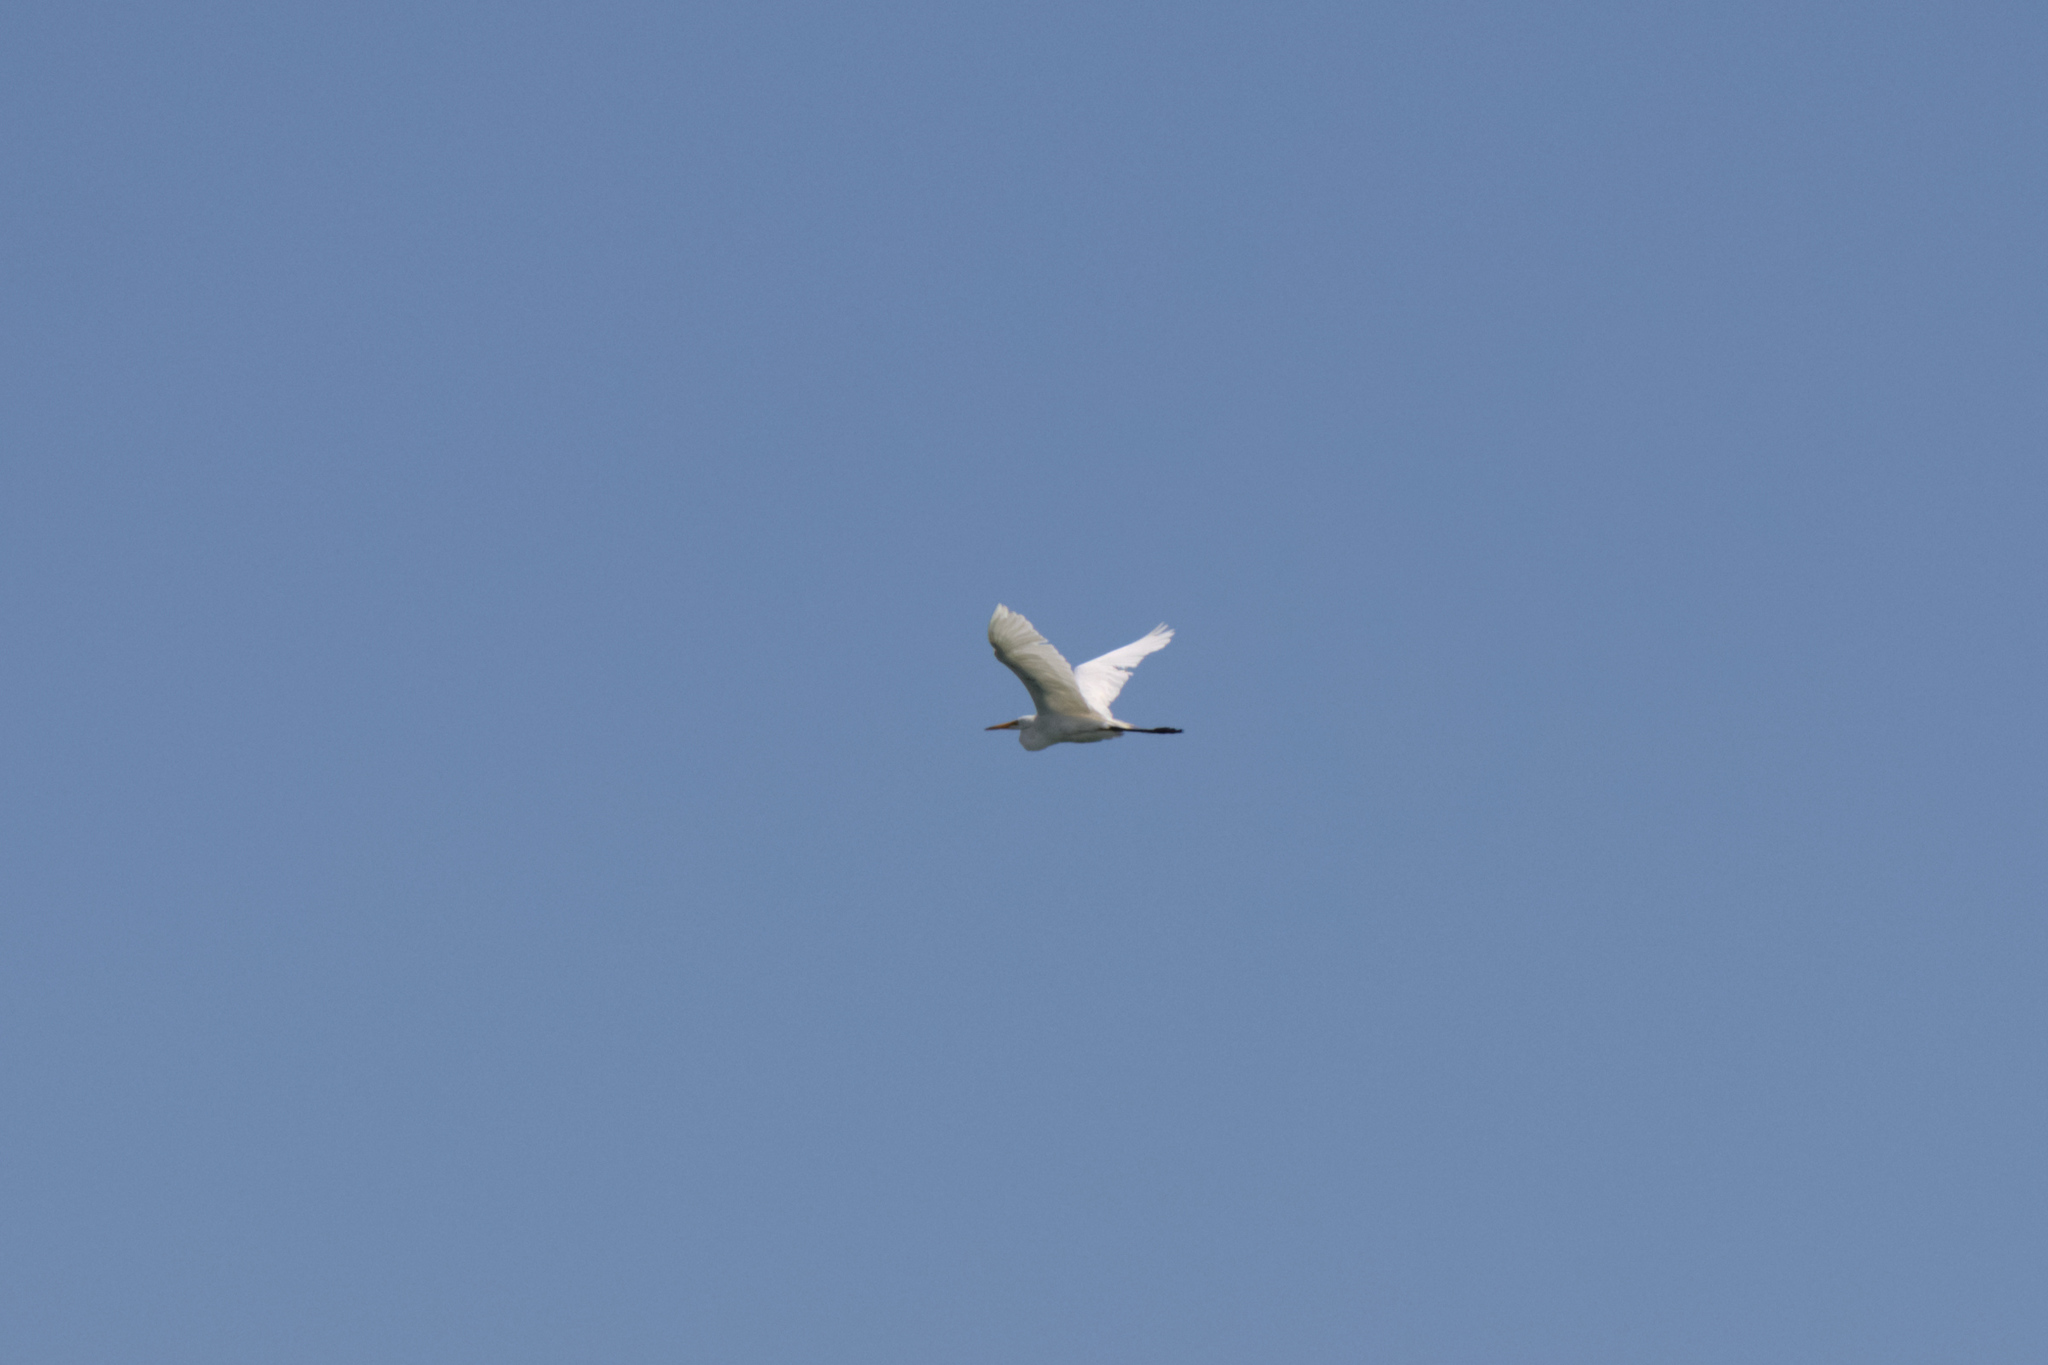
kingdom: Animalia
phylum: Chordata
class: Aves
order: Pelecaniformes
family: Ardeidae
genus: Ardea
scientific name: Ardea alba
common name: Great egret
